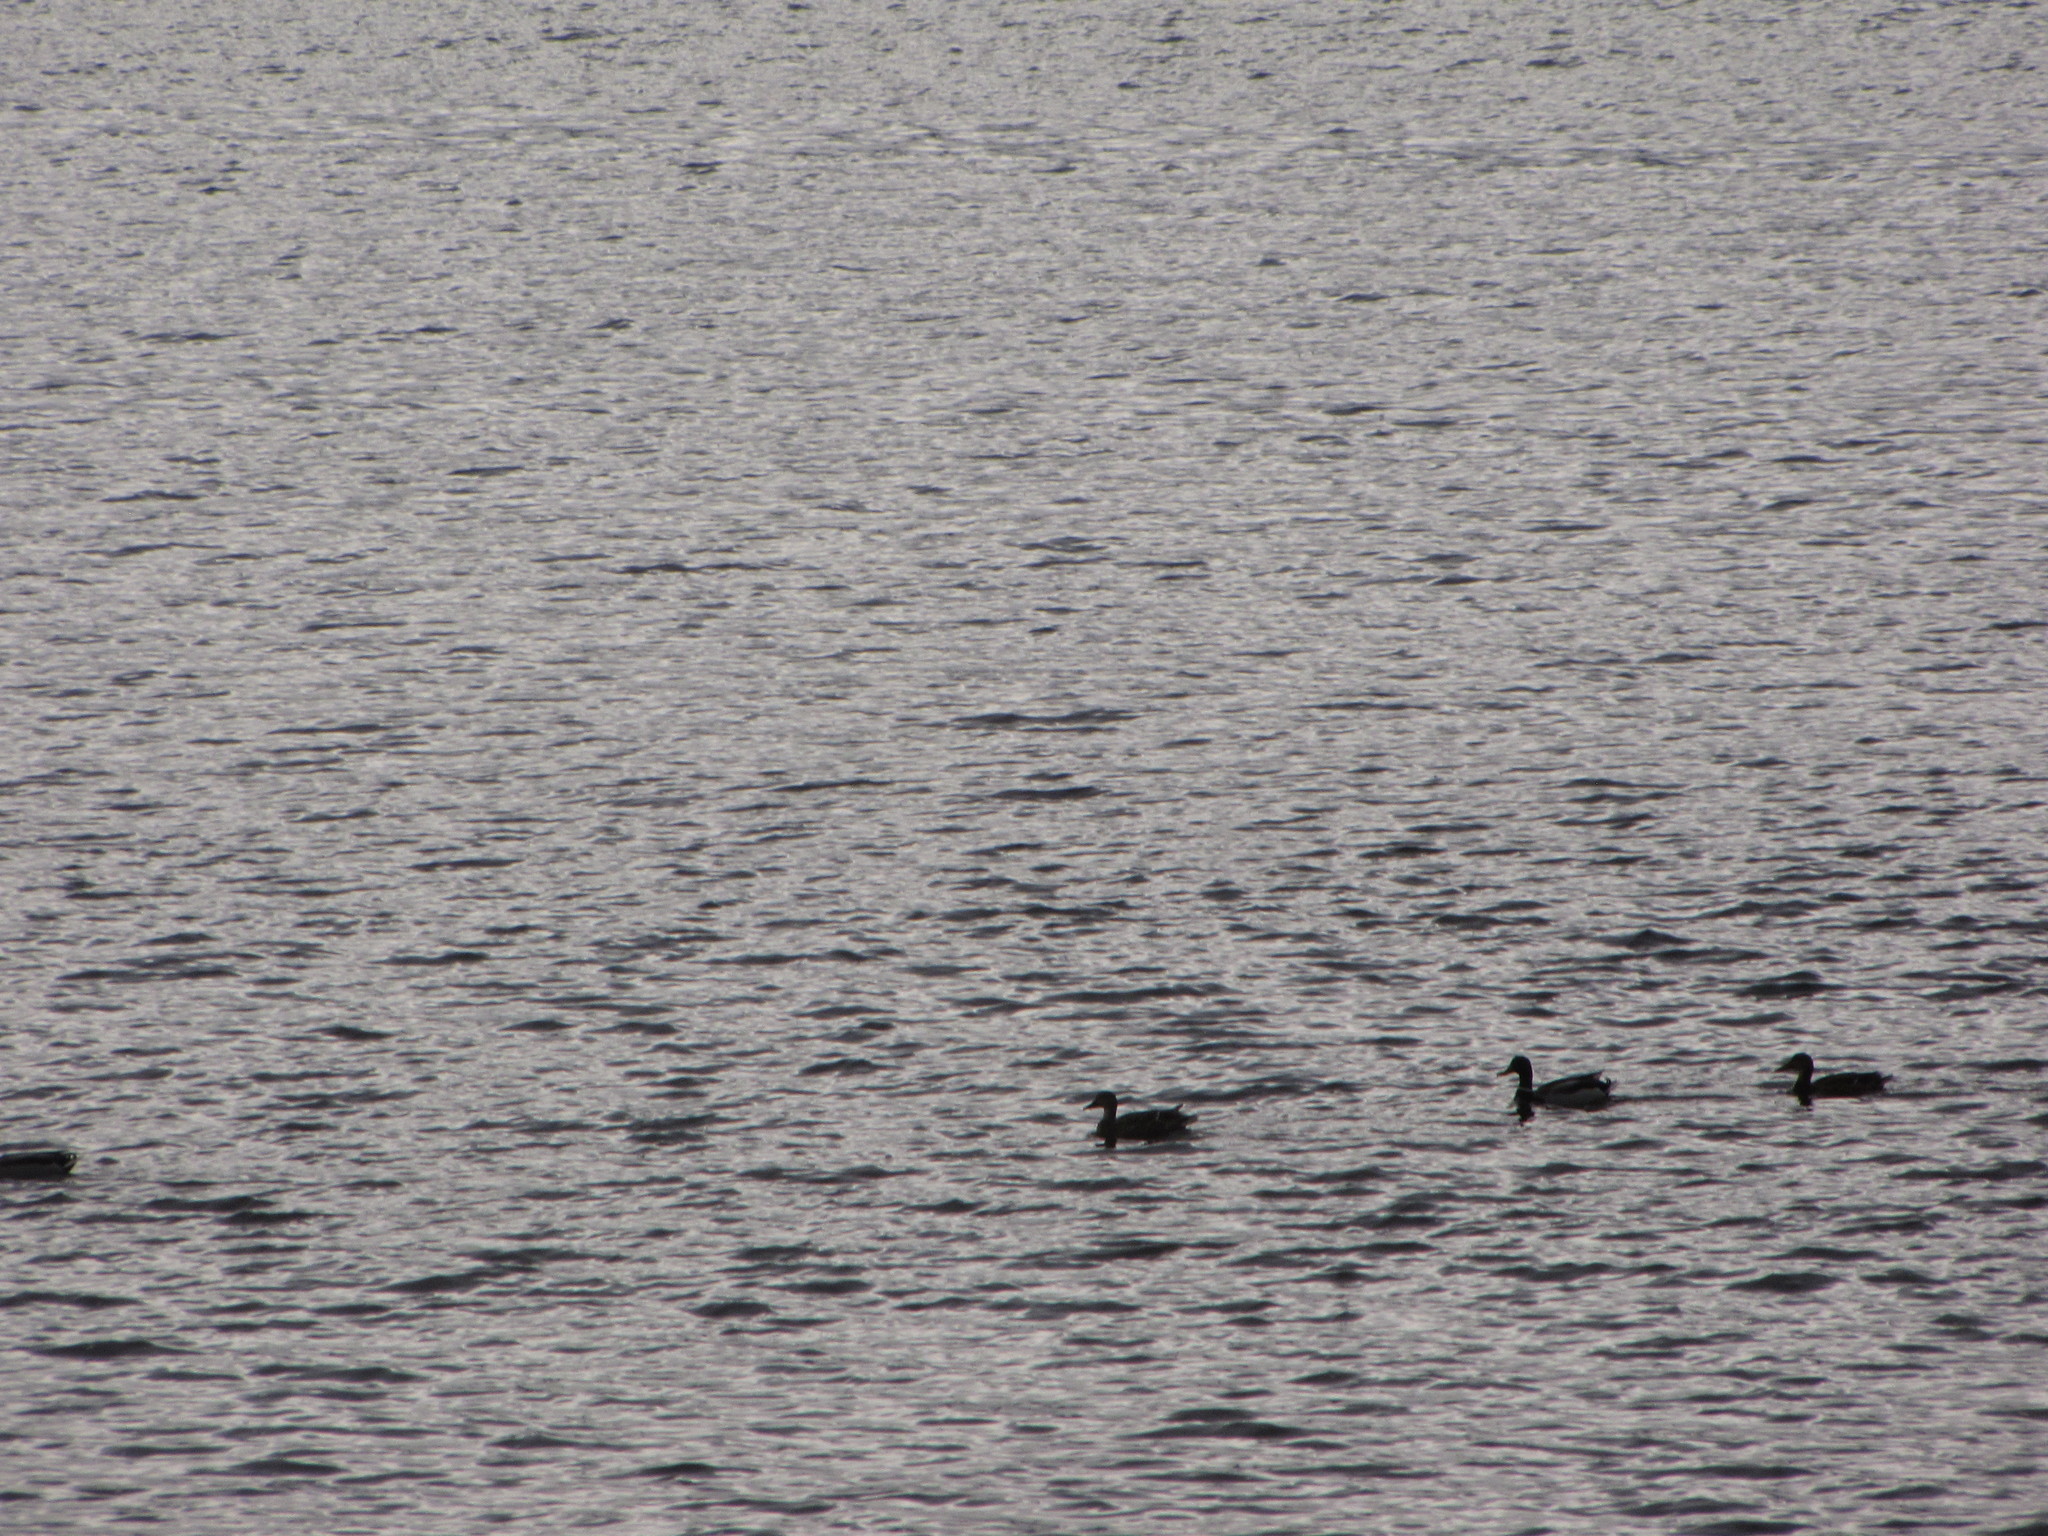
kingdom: Animalia
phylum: Chordata
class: Aves
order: Anseriformes
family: Anatidae
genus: Anas
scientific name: Anas platyrhynchos
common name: Mallard
